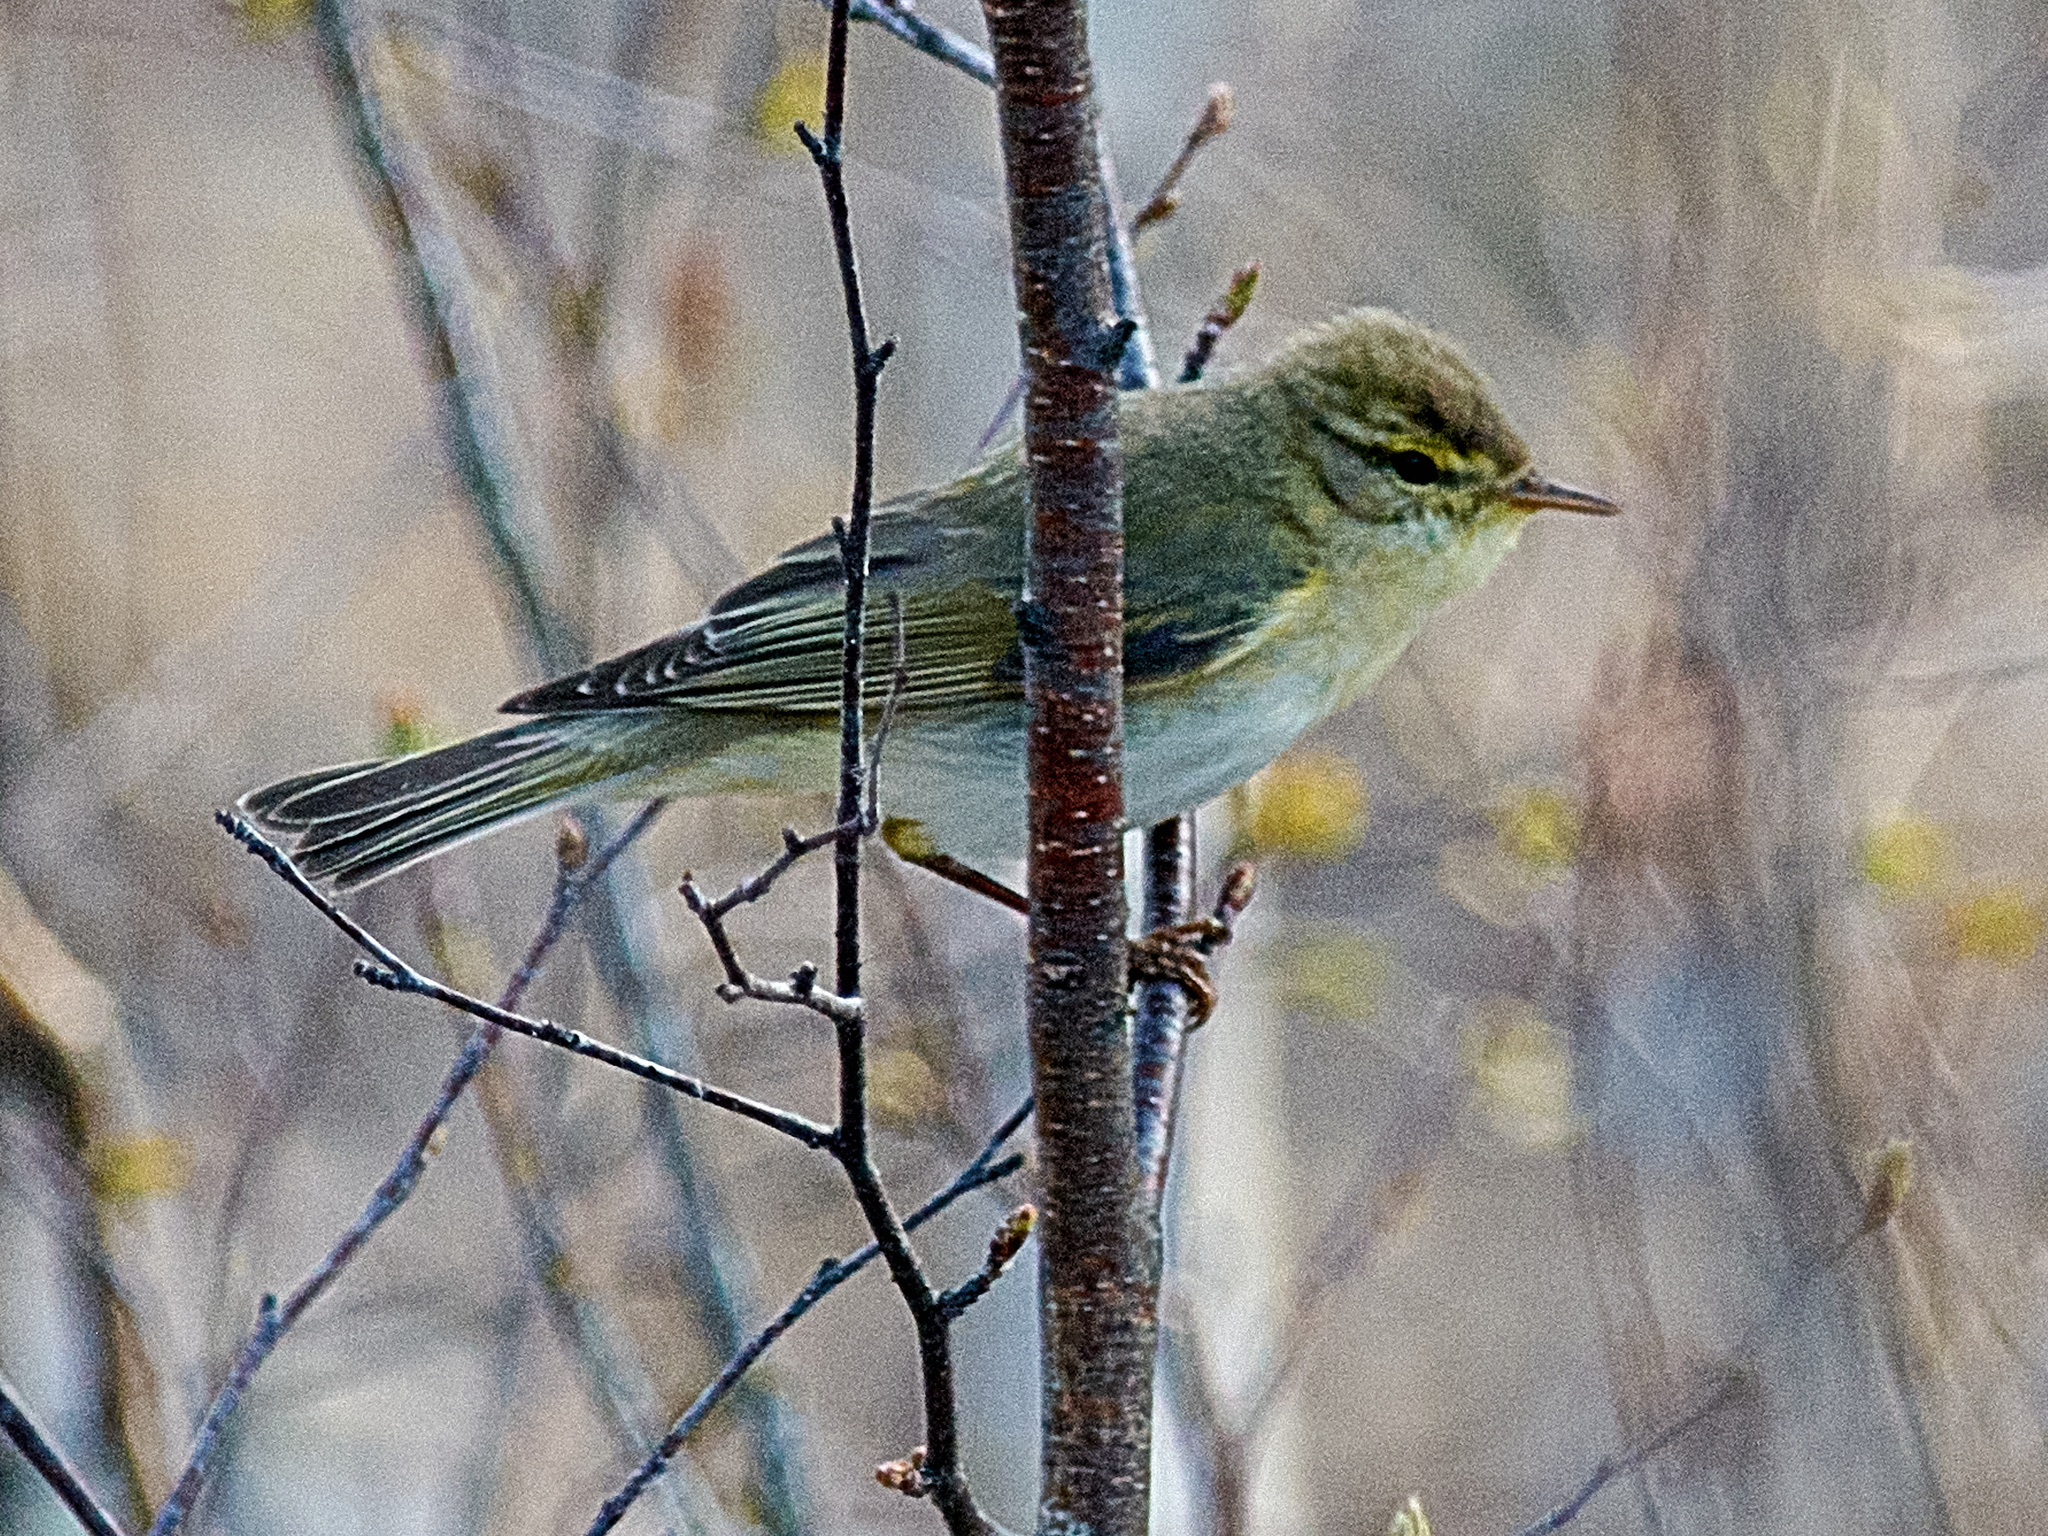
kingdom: Animalia
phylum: Chordata
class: Aves
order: Passeriformes
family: Phylloscopidae
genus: Phylloscopus
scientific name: Phylloscopus trochilus
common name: Willow warbler
